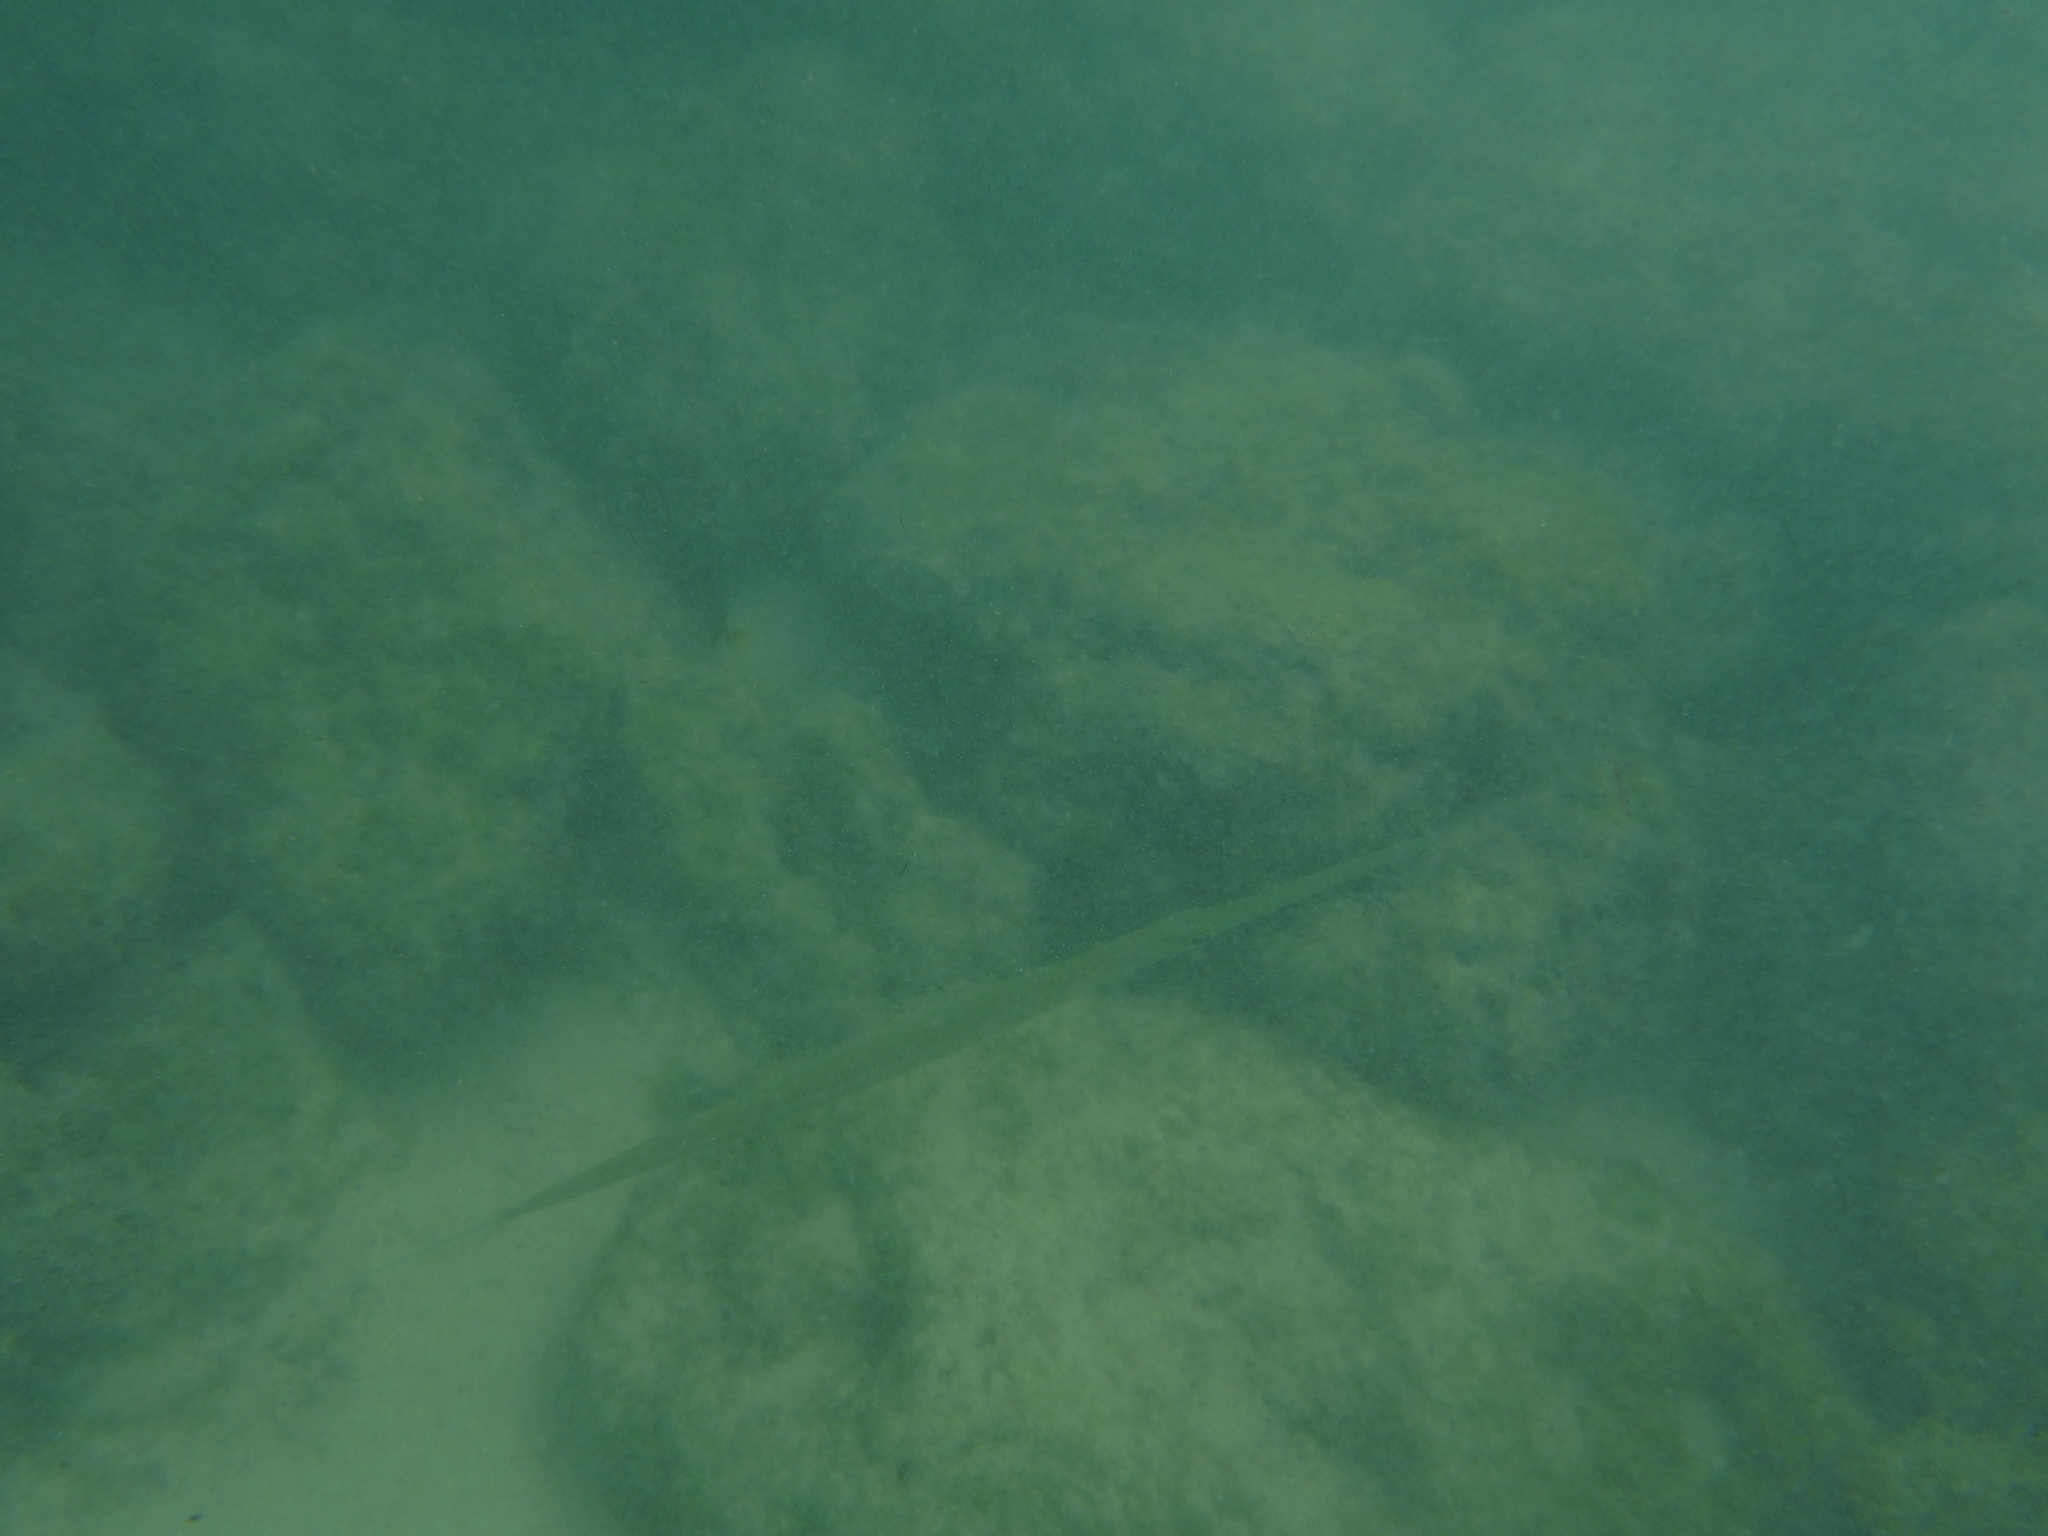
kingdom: Animalia
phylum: Chordata
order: Syngnathiformes
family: Fistulariidae
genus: Fistularia
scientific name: Fistularia commersonii
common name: Bluespotted cornetfish
